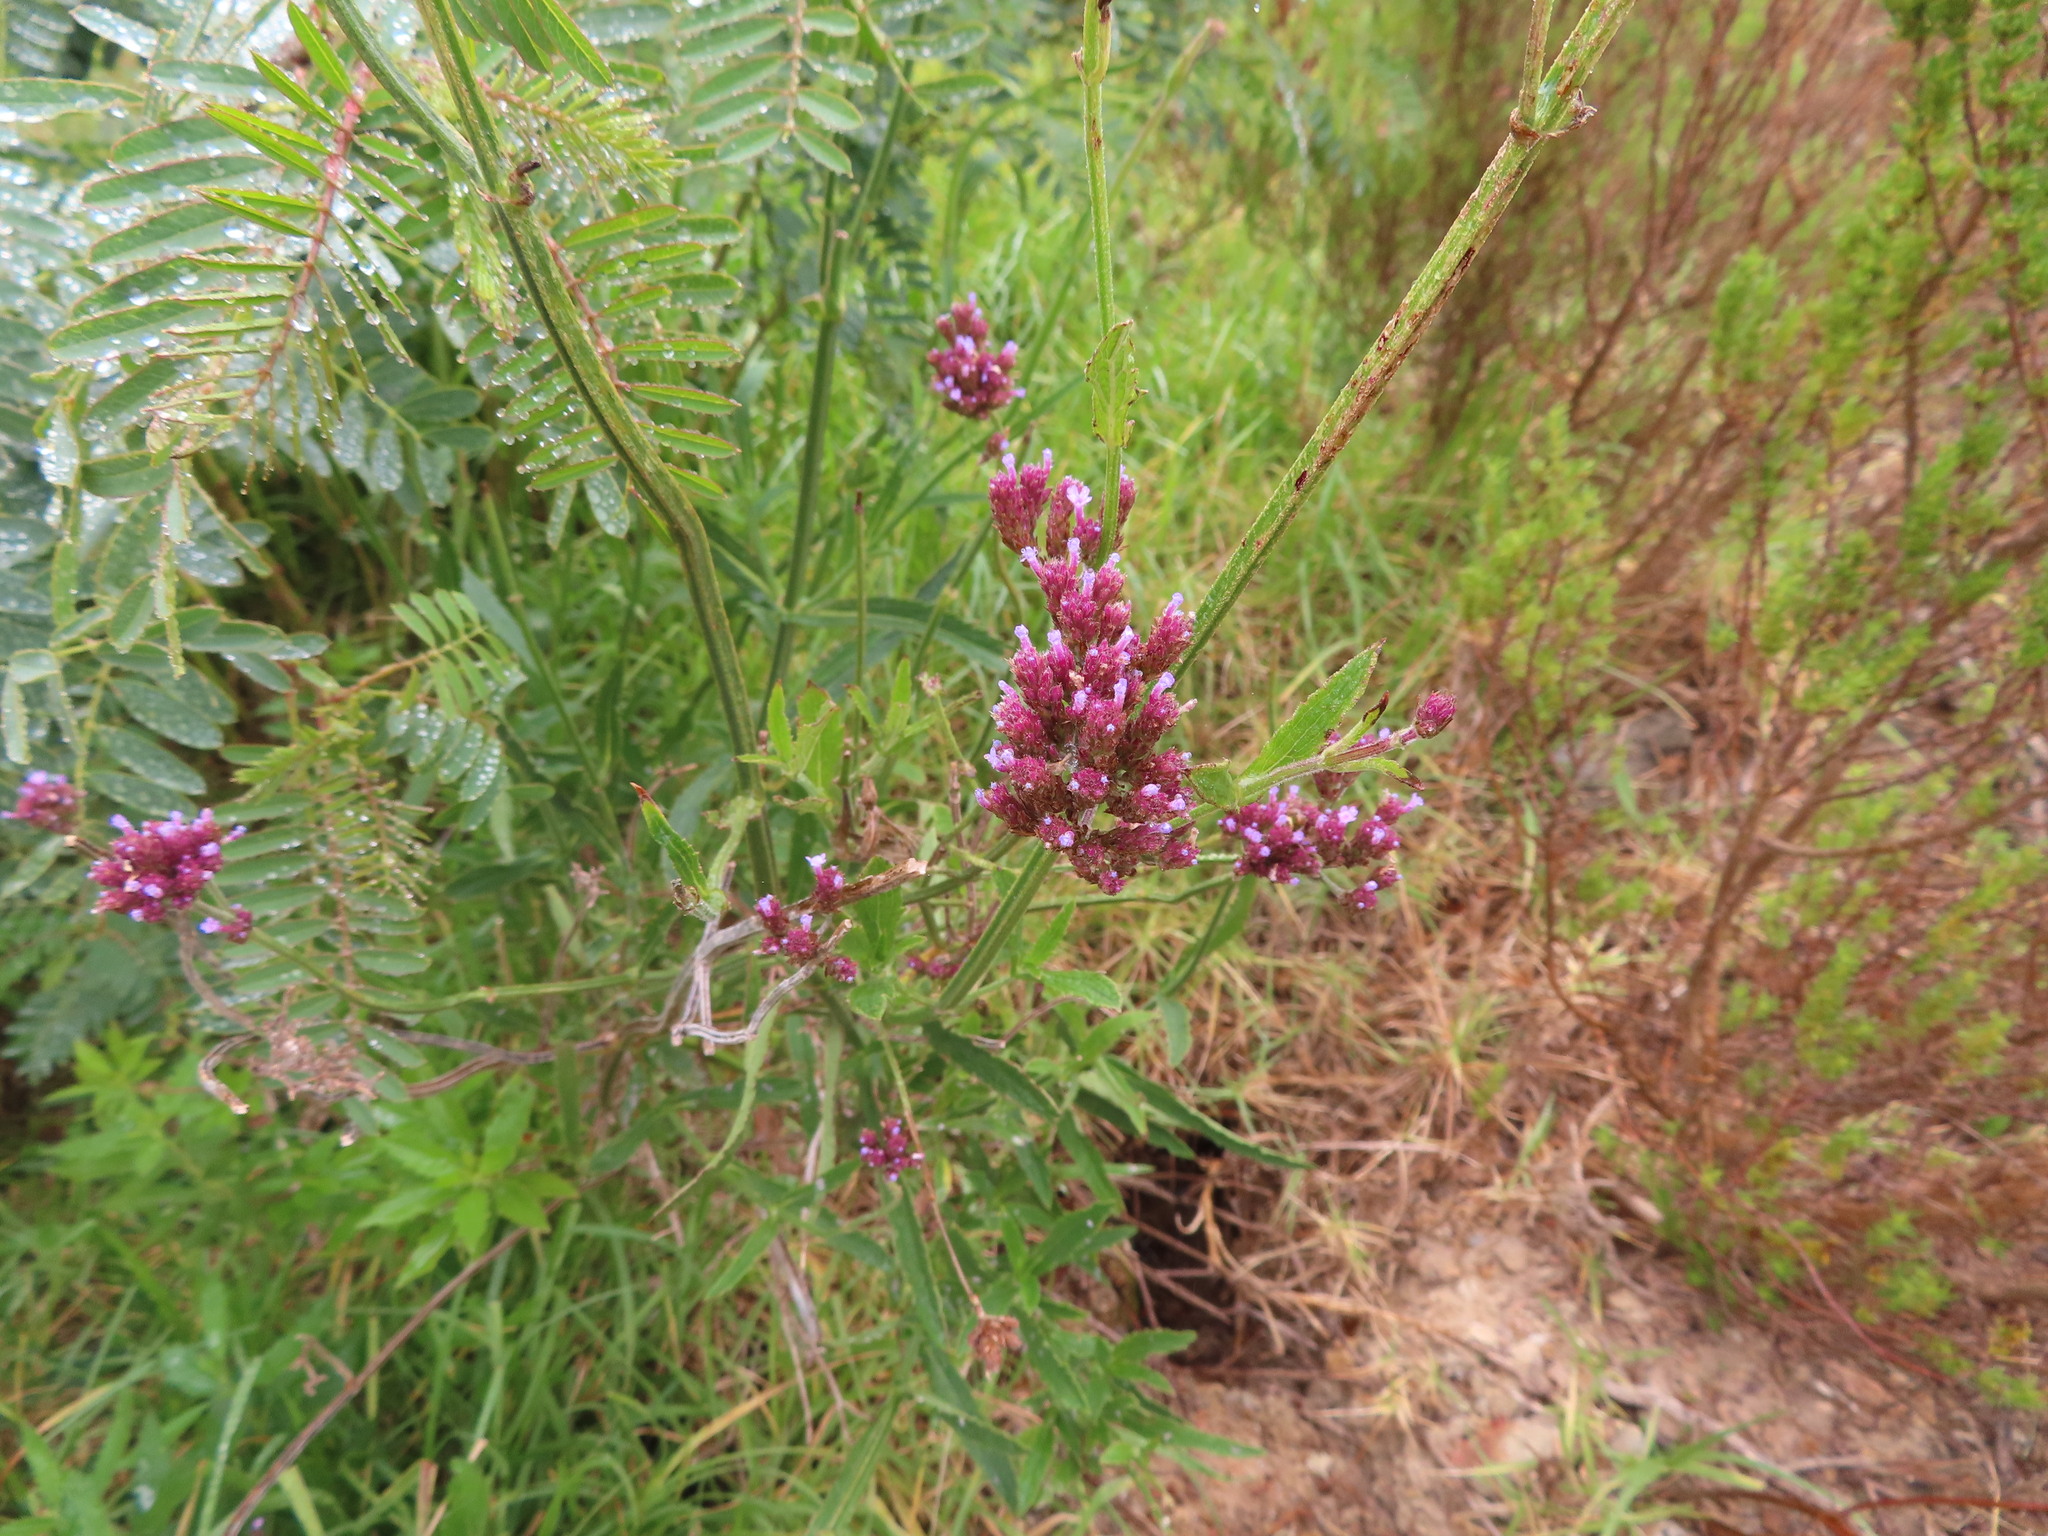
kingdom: Plantae
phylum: Tracheophyta
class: Magnoliopsida
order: Lamiales
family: Verbenaceae
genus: Verbena
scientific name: Verbena bonariensis
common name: Purpletop vervain
